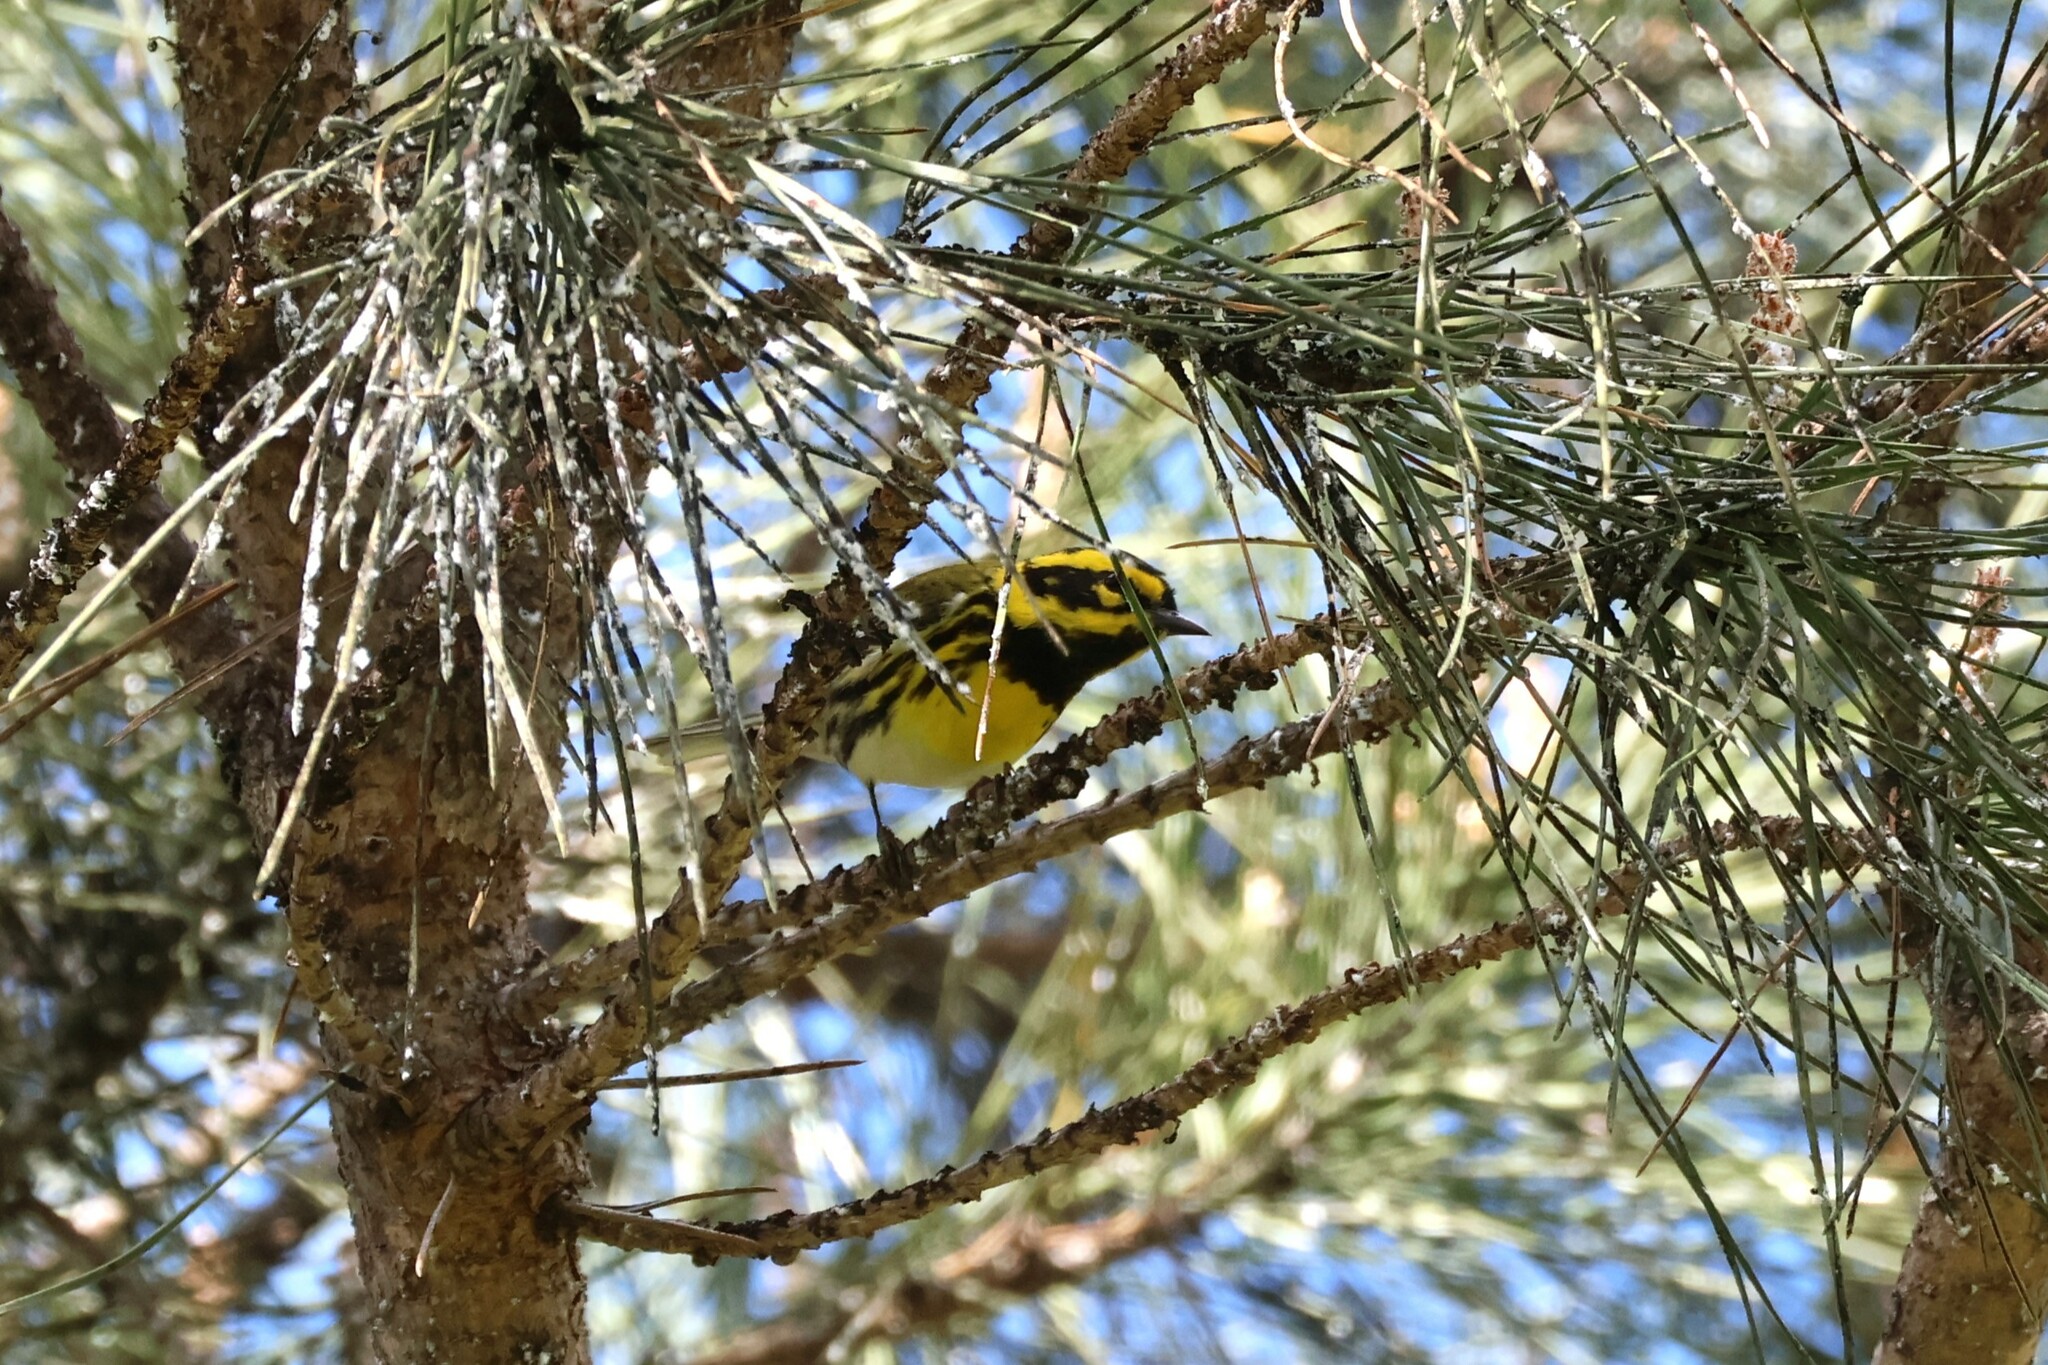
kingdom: Animalia
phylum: Chordata
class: Aves
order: Passeriformes
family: Parulidae
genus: Setophaga
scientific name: Setophaga townsendi
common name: Townsend's warbler
